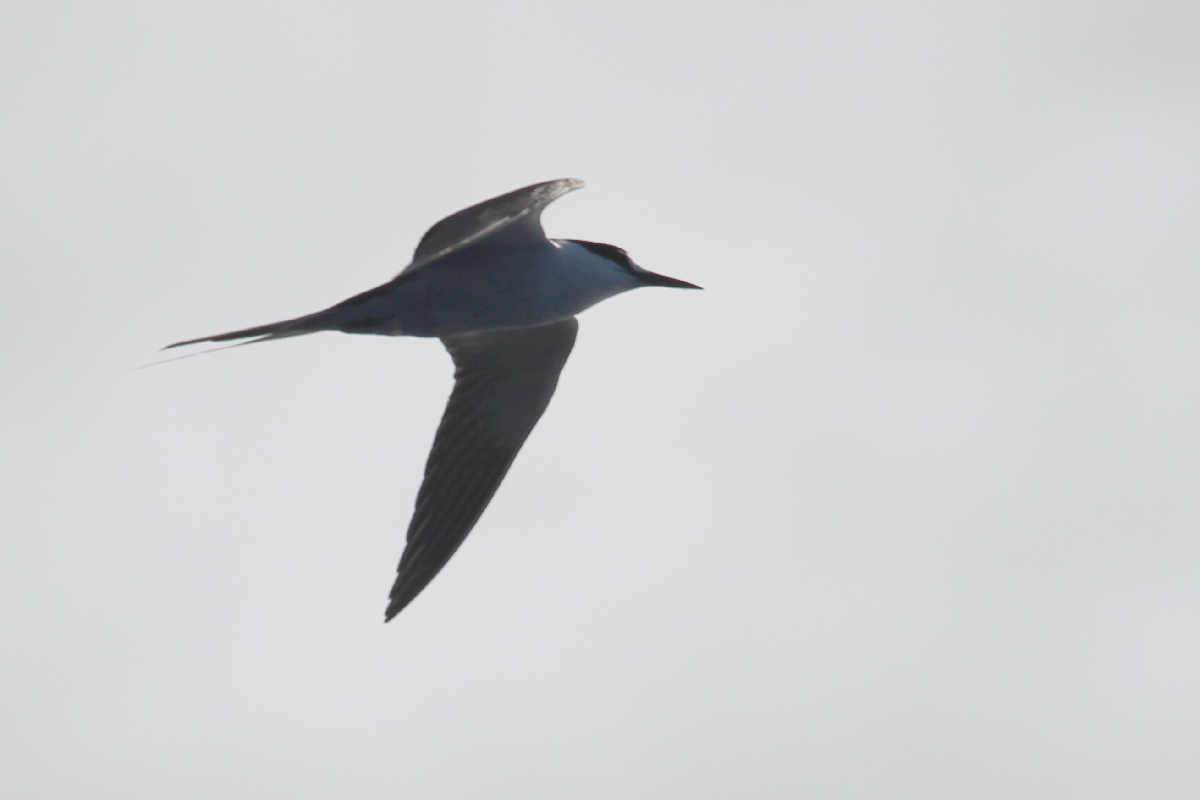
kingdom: Animalia
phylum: Chordata
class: Aves
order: Charadriiformes
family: Laridae
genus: Onychoprion
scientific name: Onychoprion fuscatus
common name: Sooty tern
